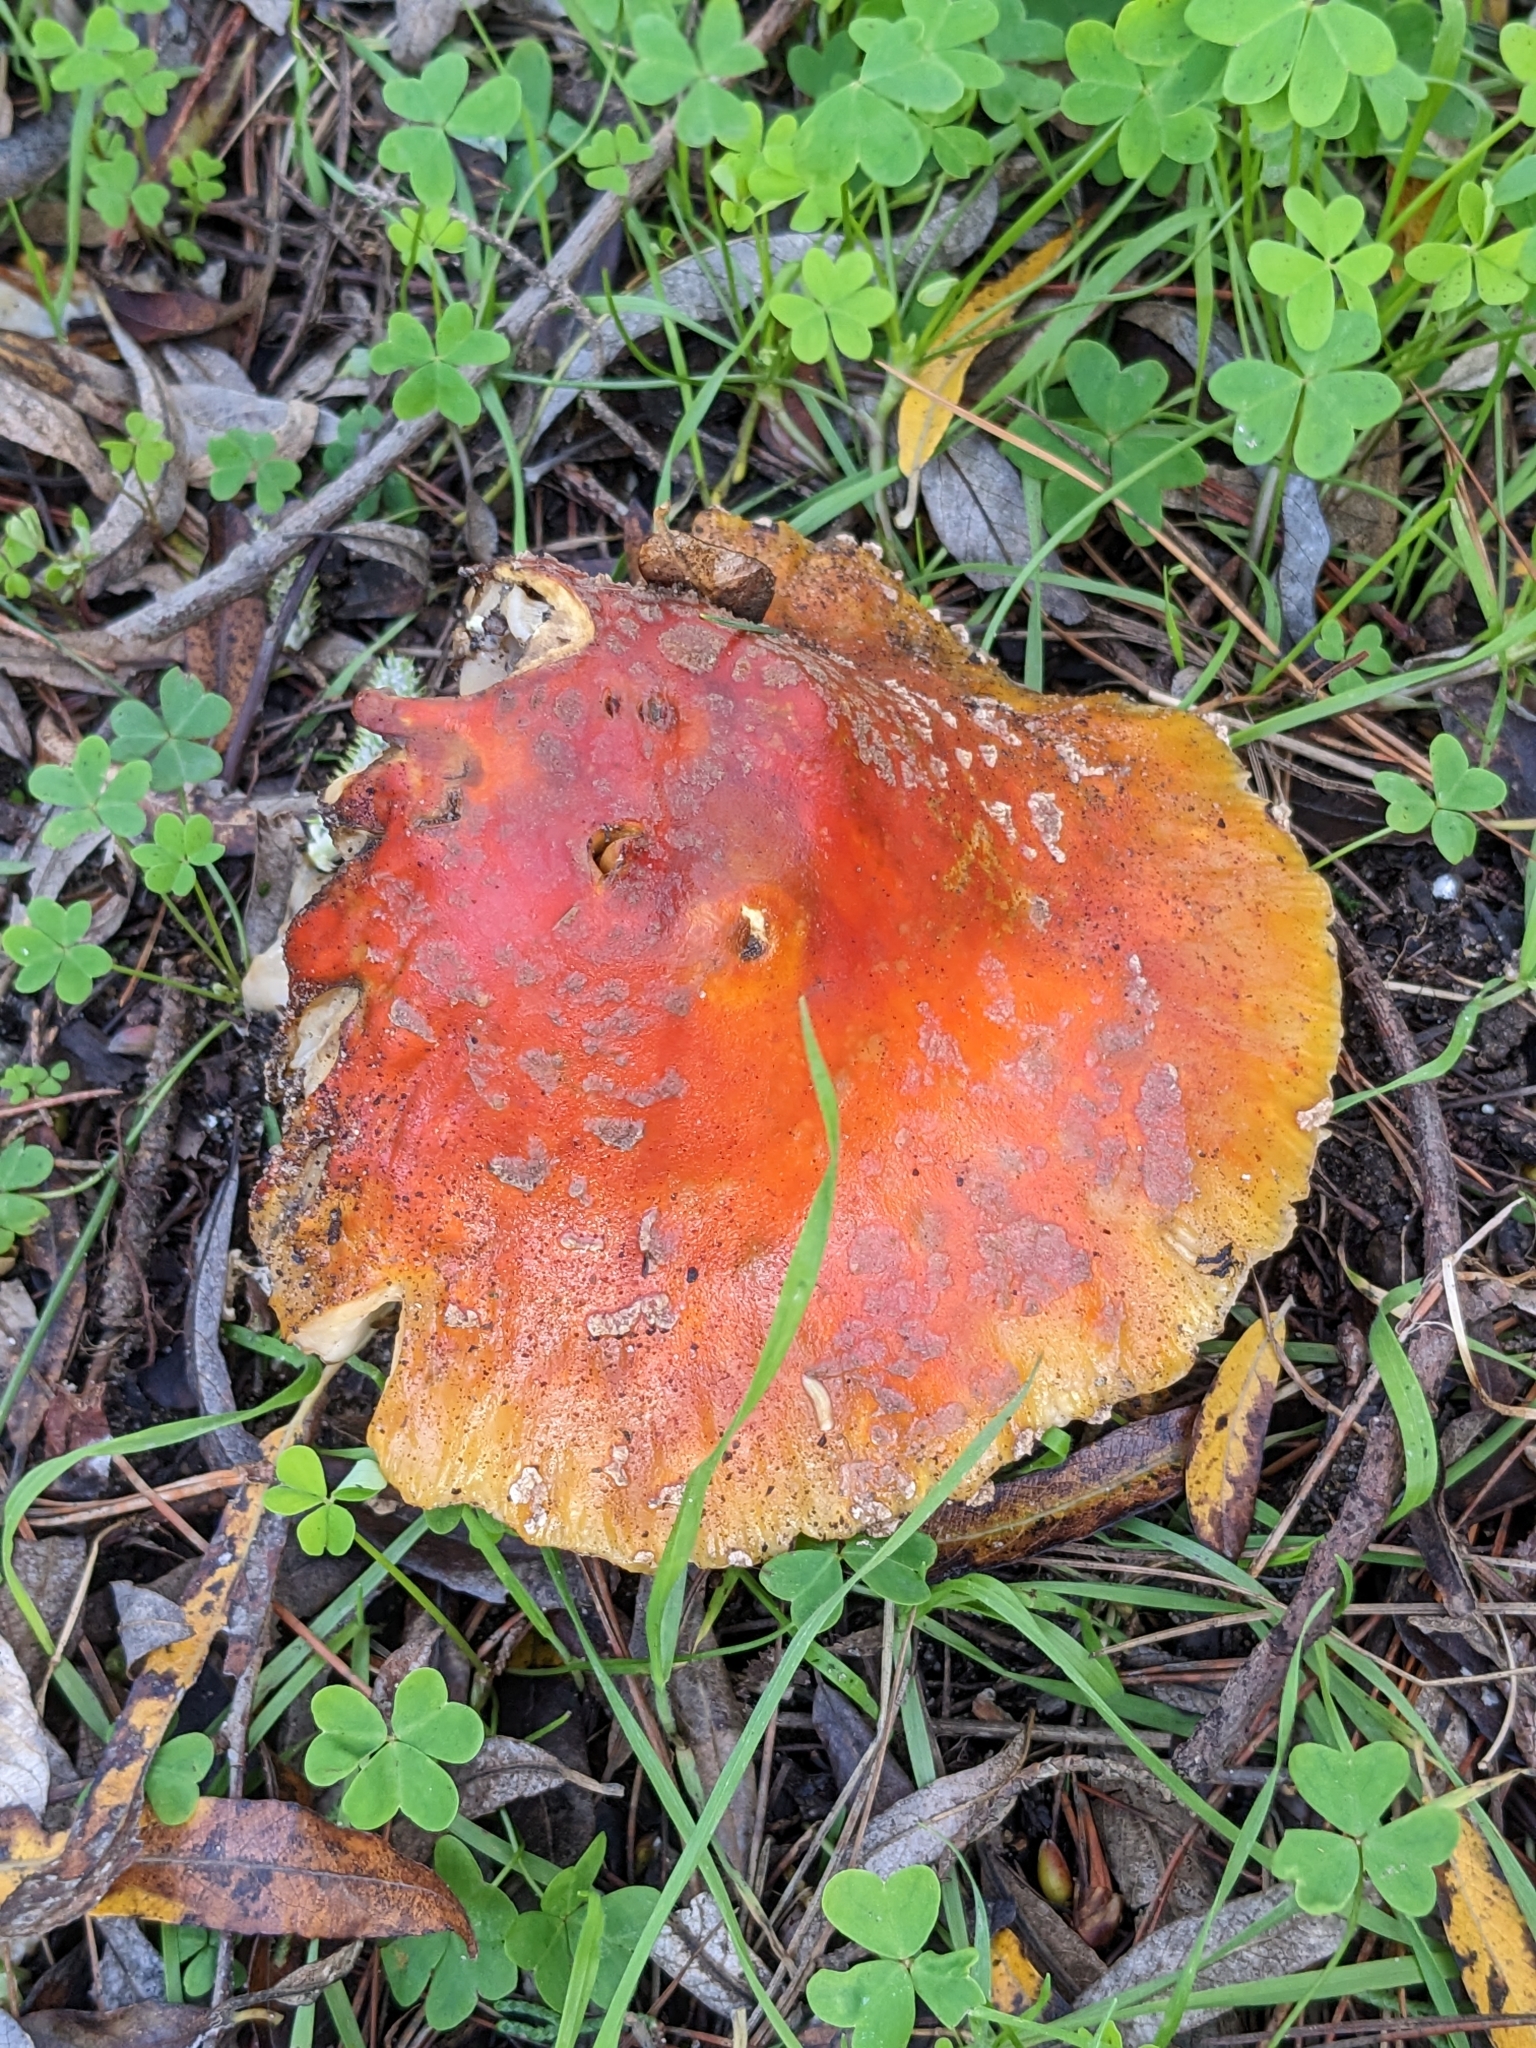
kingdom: Fungi
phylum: Basidiomycota
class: Agaricomycetes
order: Agaricales
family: Amanitaceae
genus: Amanita
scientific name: Amanita muscaria
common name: Fly agaric
